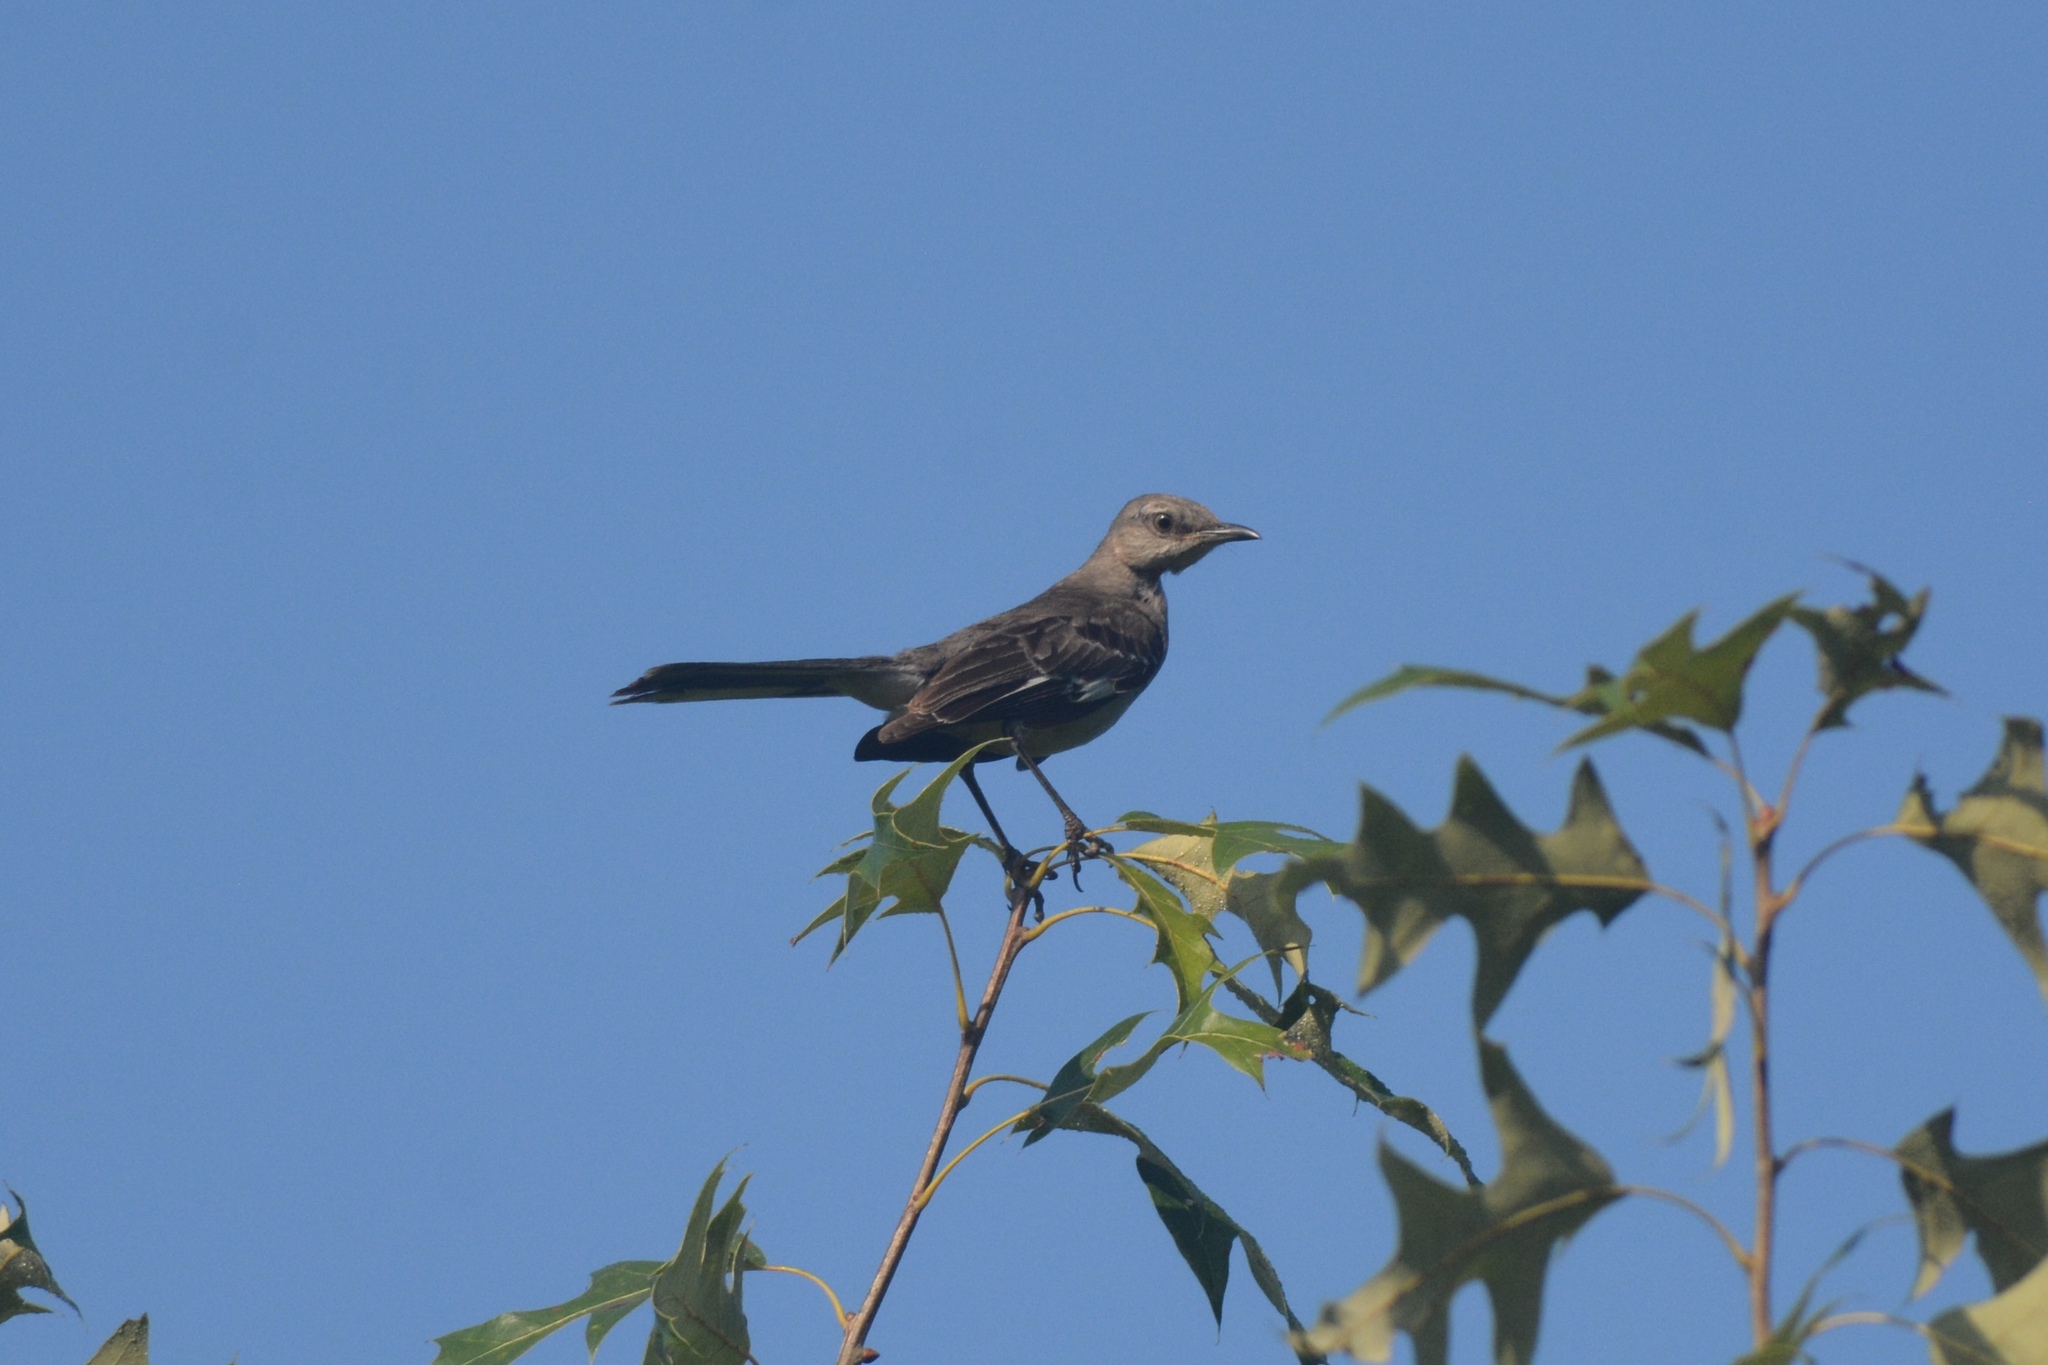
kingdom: Animalia
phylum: Chordata
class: Aves
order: Passeriformes
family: Mimidae
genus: Mimus
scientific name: Mimus polyglottos
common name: Northern mockingbird
